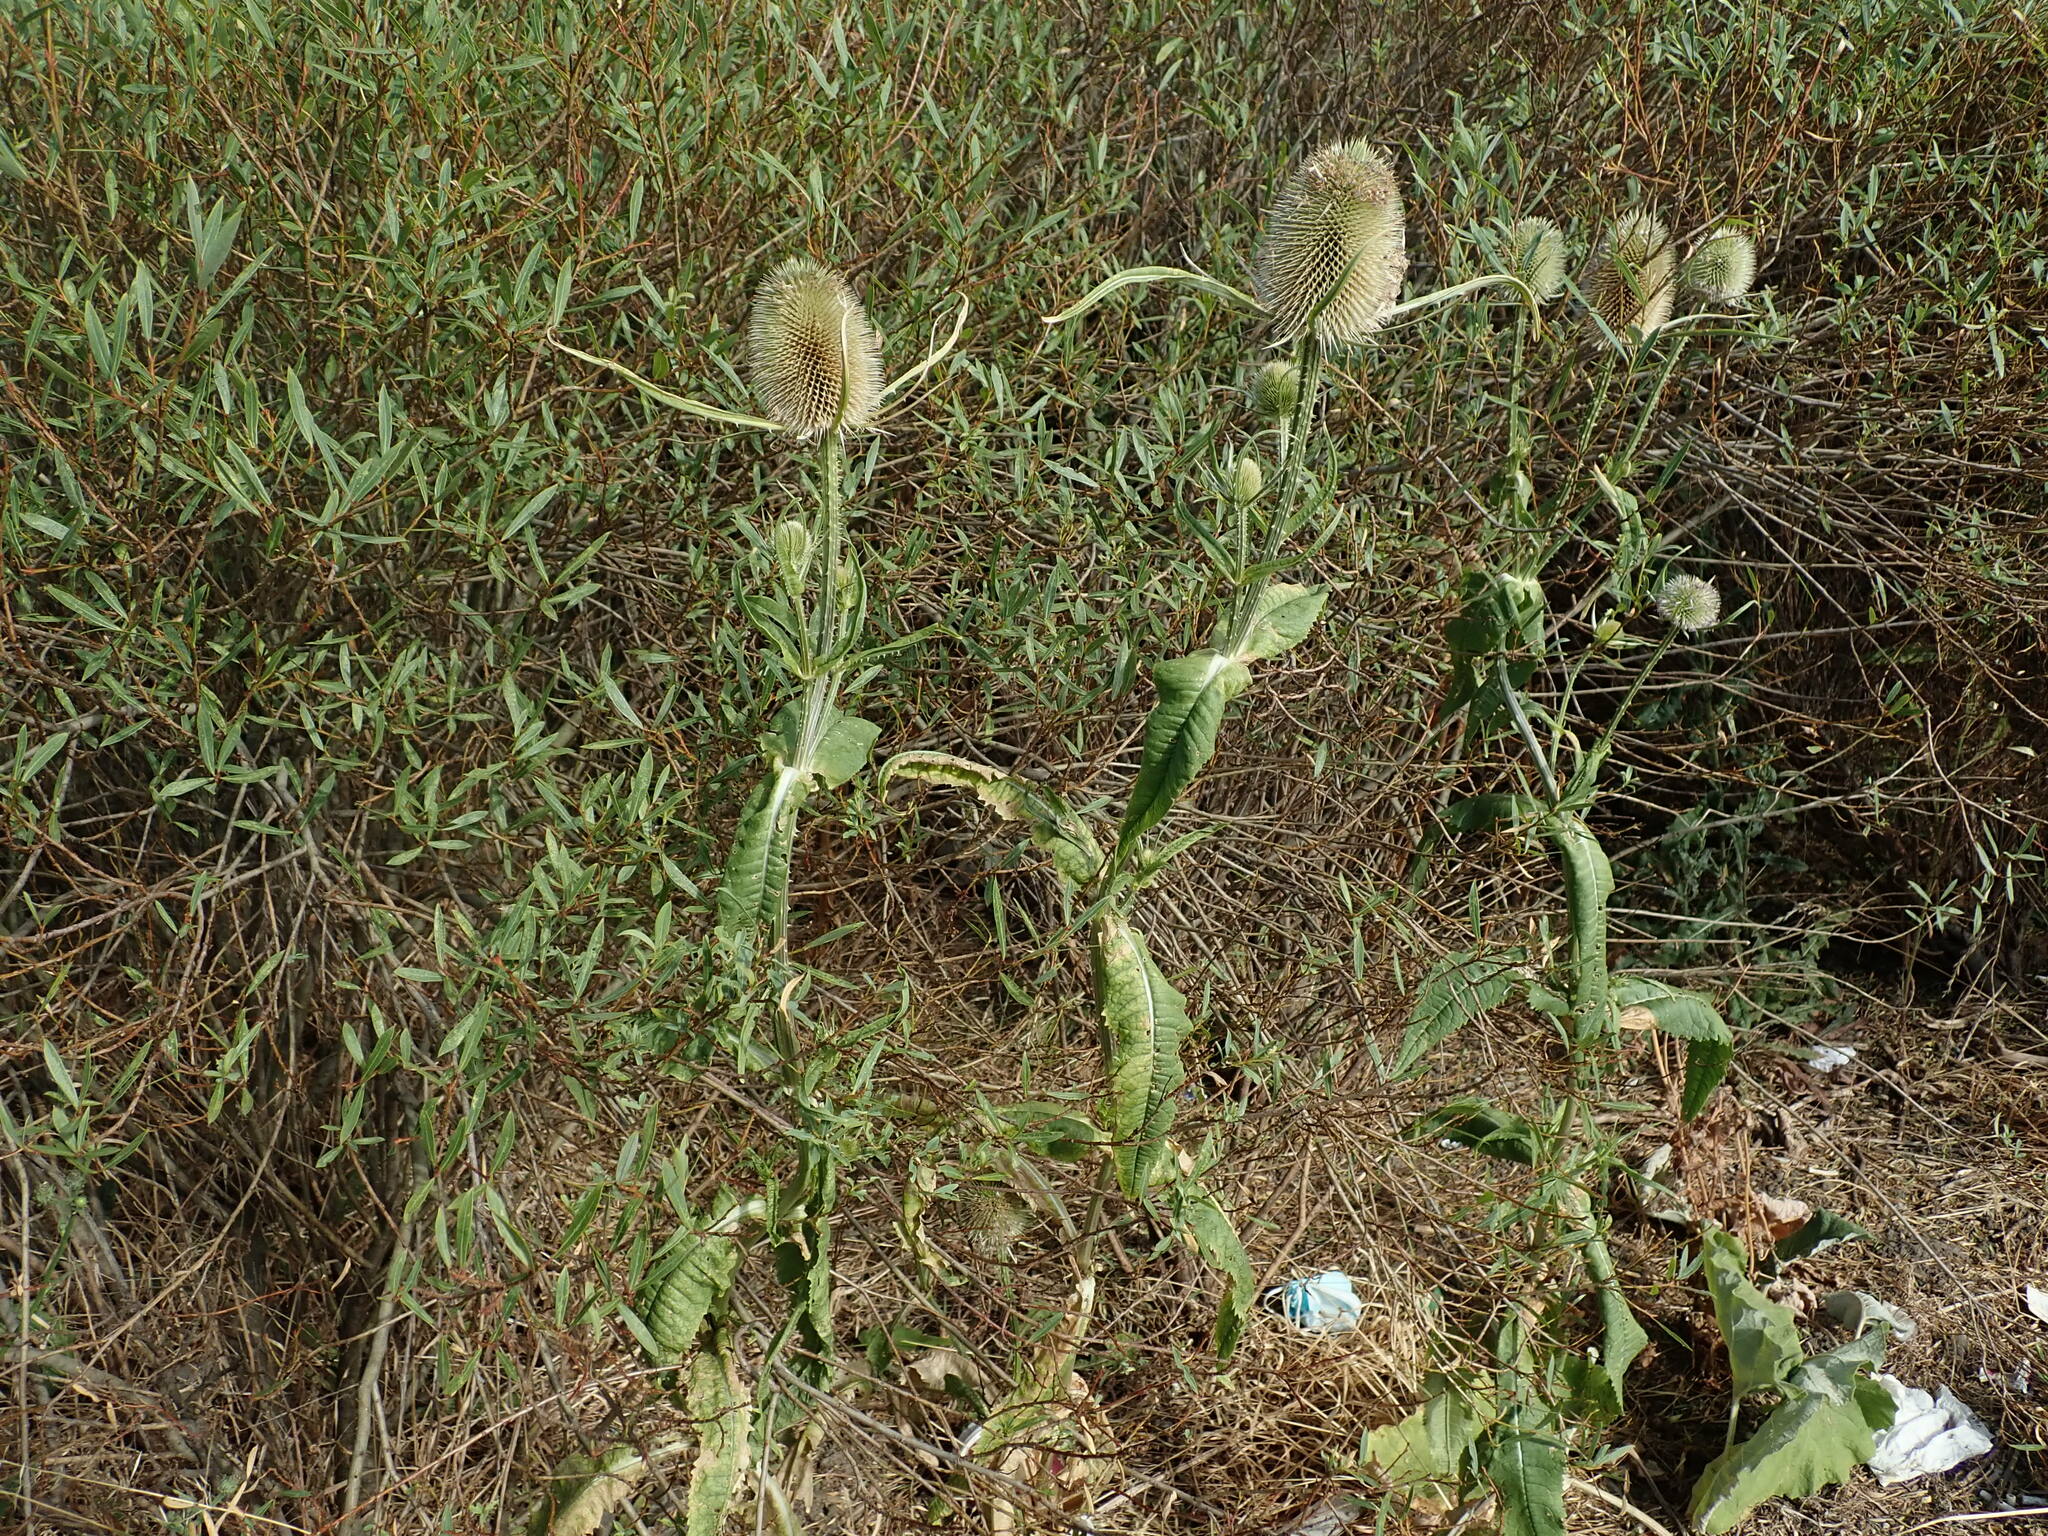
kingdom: Plantae
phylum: Tracheophyta
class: Magnoliopsida
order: Dipsacales
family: Caprifoliaceae
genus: Dipsacus
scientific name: Dipsacus fullonum
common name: Teasel
